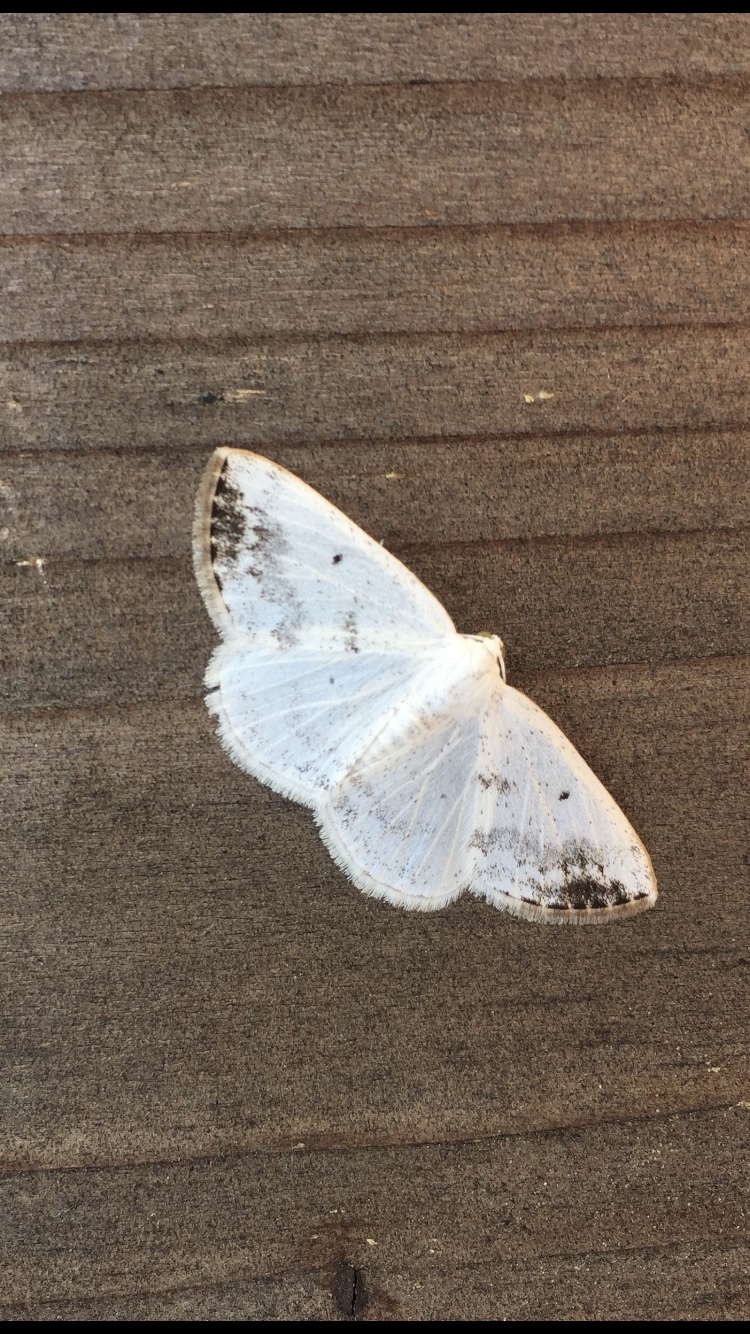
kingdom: Animalia
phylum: Arthropoda
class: Insecta
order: Lepidoptera
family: Geometridae
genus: Lomographa
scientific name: Lomographa temerata
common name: Clouded silver
